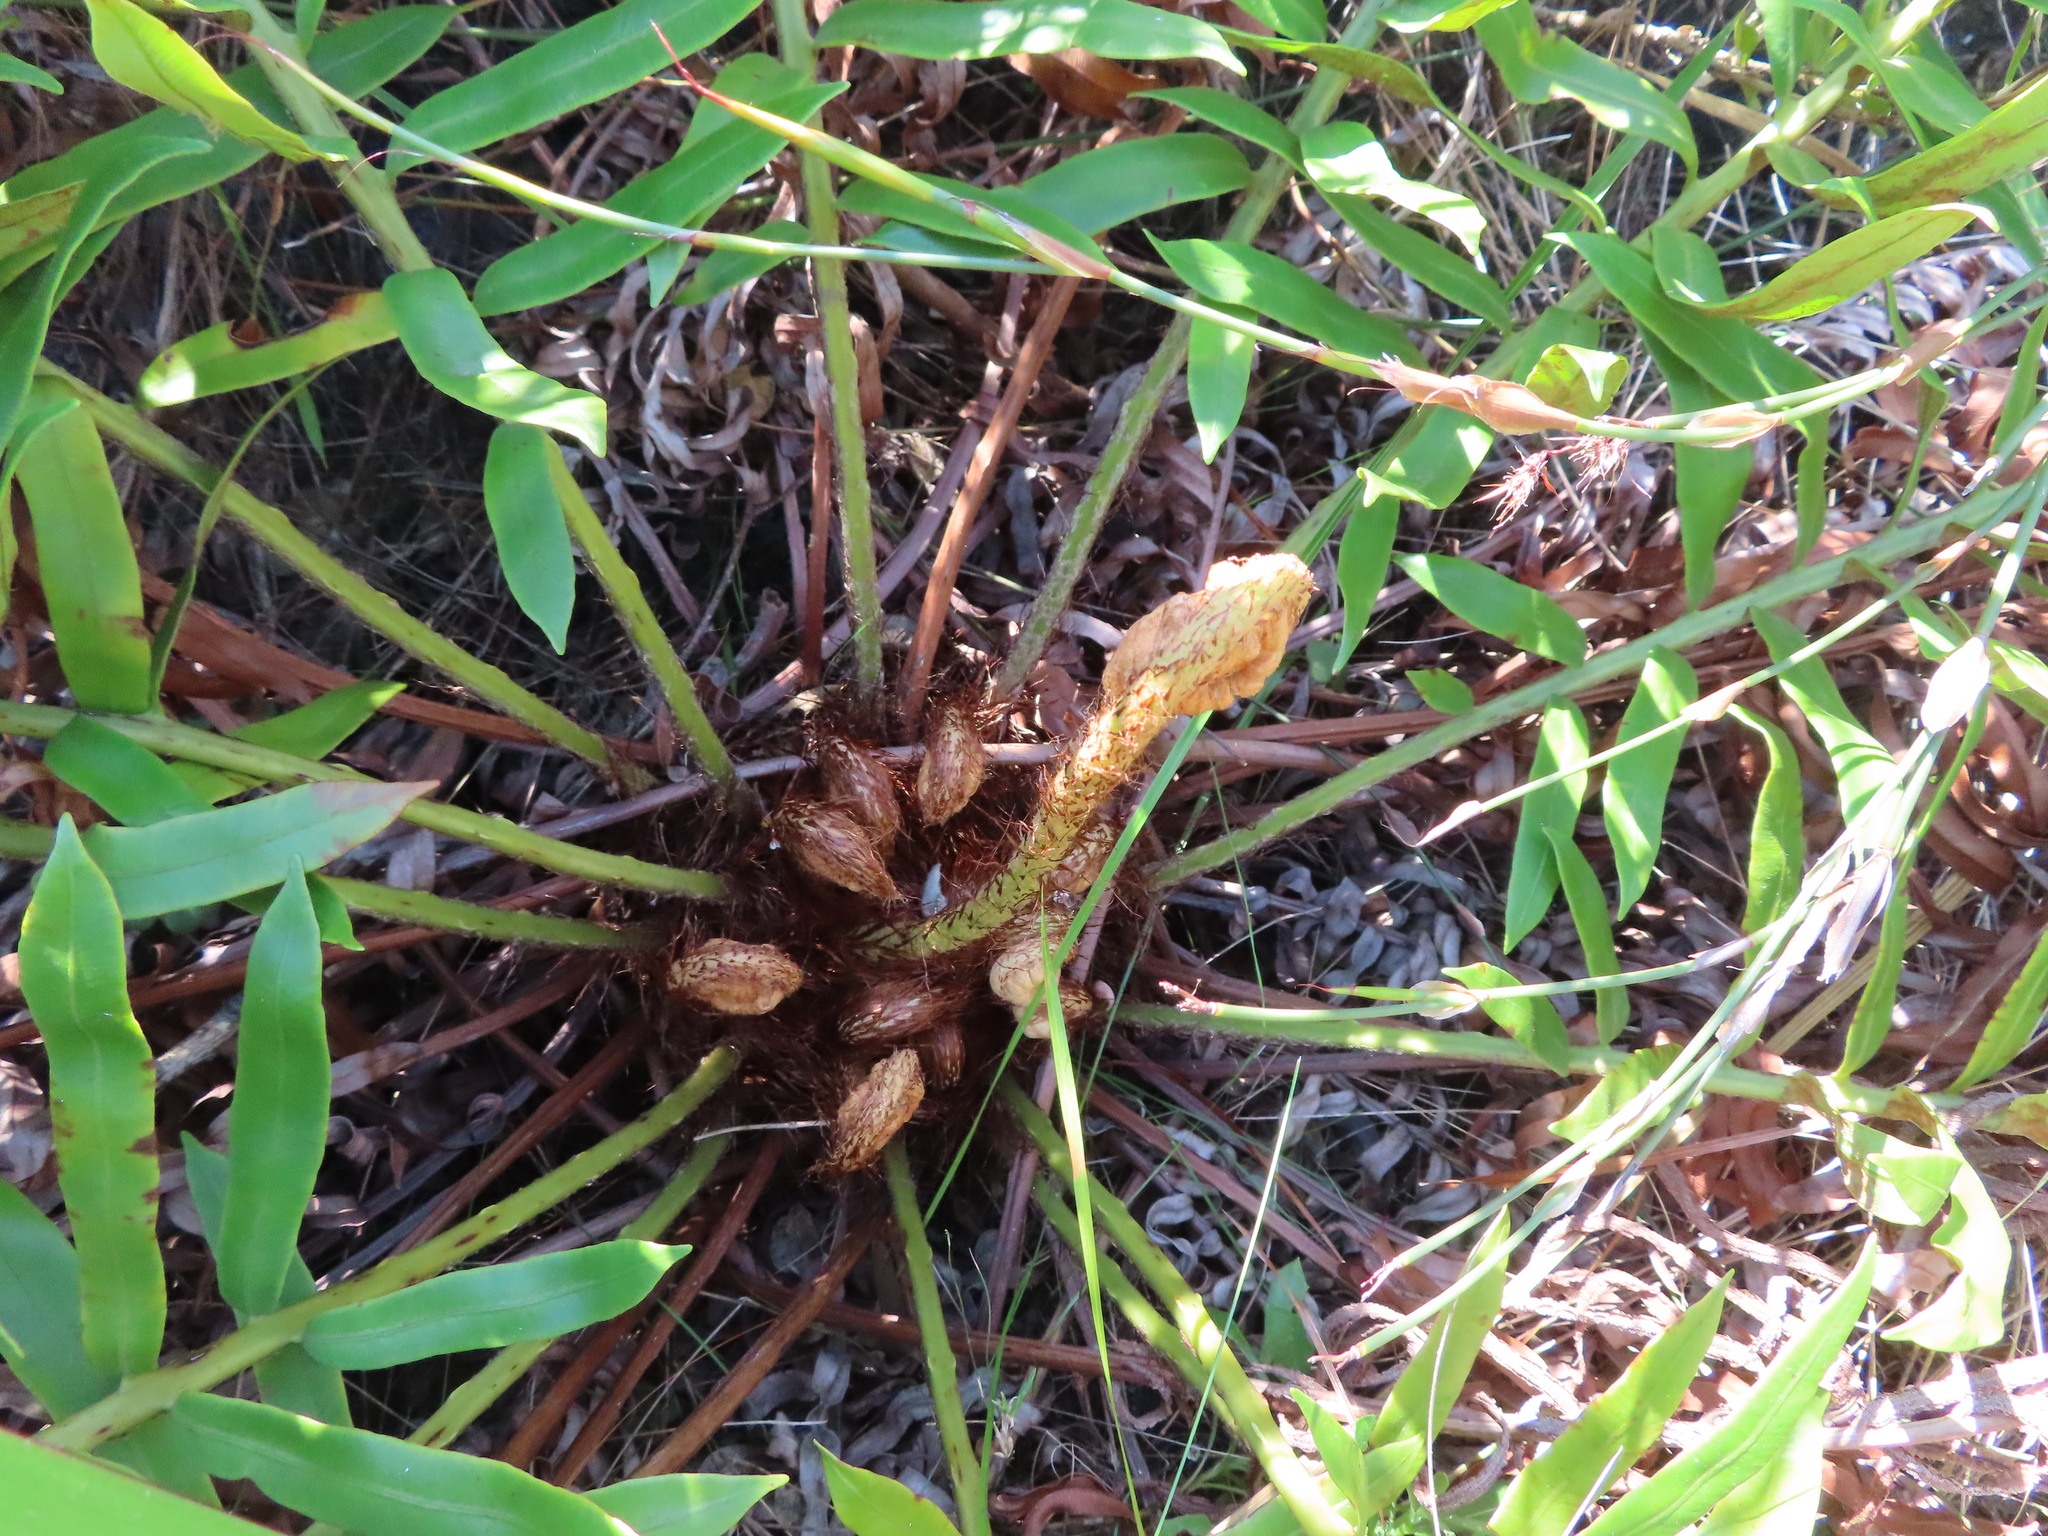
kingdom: Plantae
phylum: Tracheophyta
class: Polypodiopsida
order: Polypodiales
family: Blechnaceae
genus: Lomariocycas
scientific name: Lomariocycas tabularis
